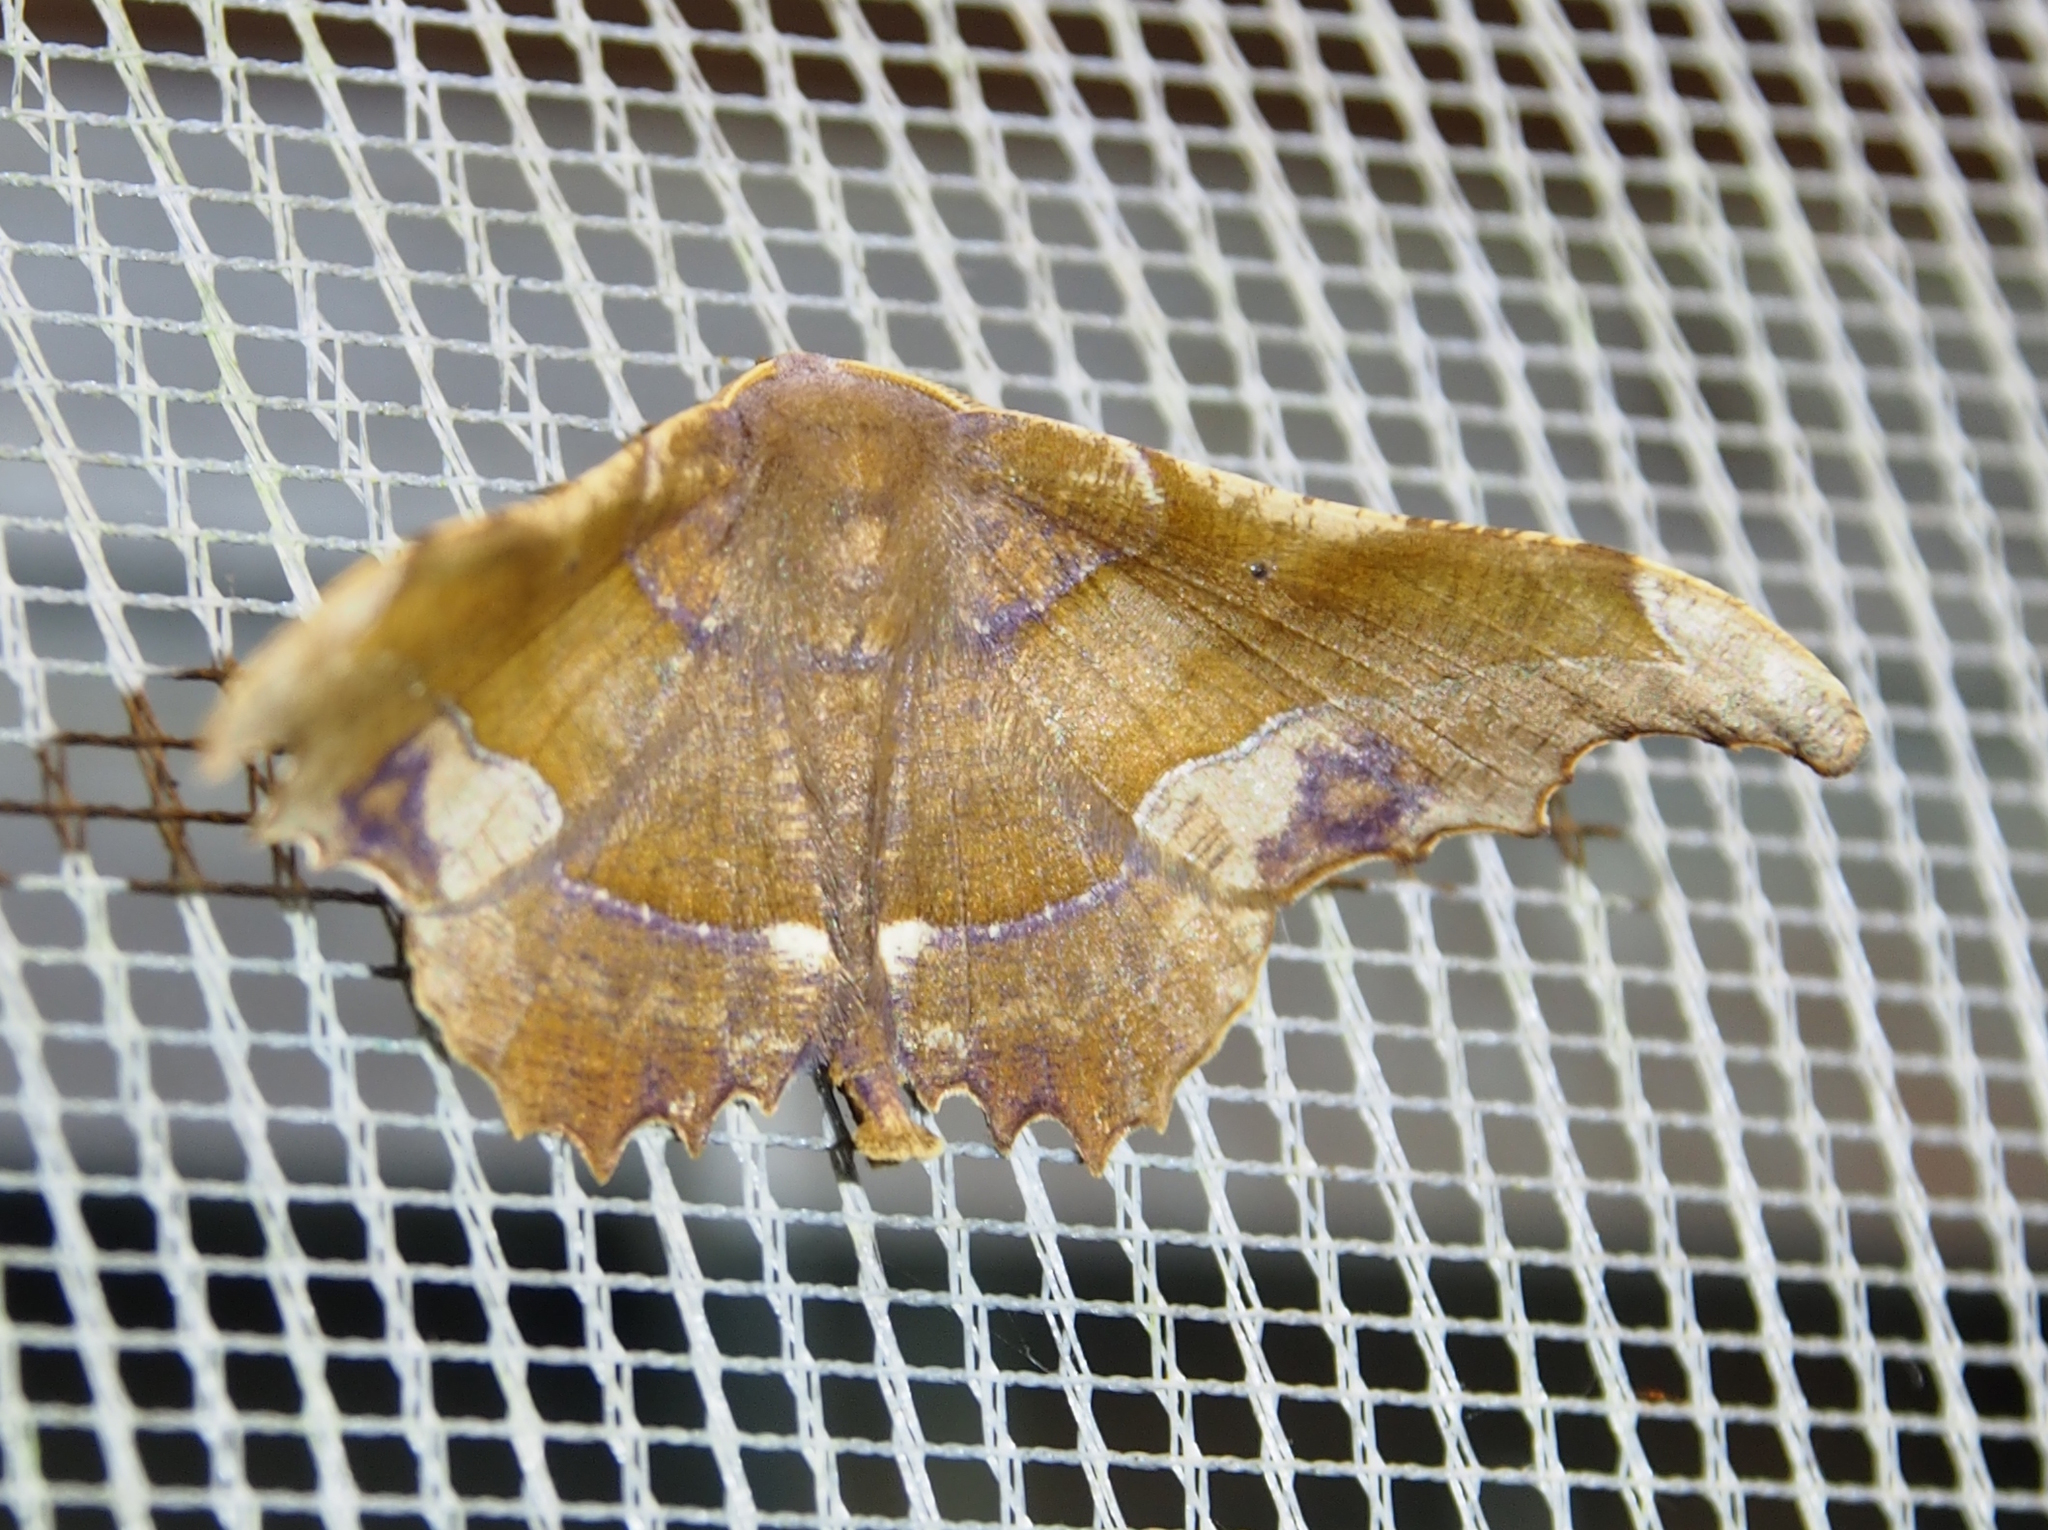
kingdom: Animalia
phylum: Arthropoda
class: Insecta
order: Lepidoptera
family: Geometridae
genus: Patalene
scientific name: Patalene aenetusaria
